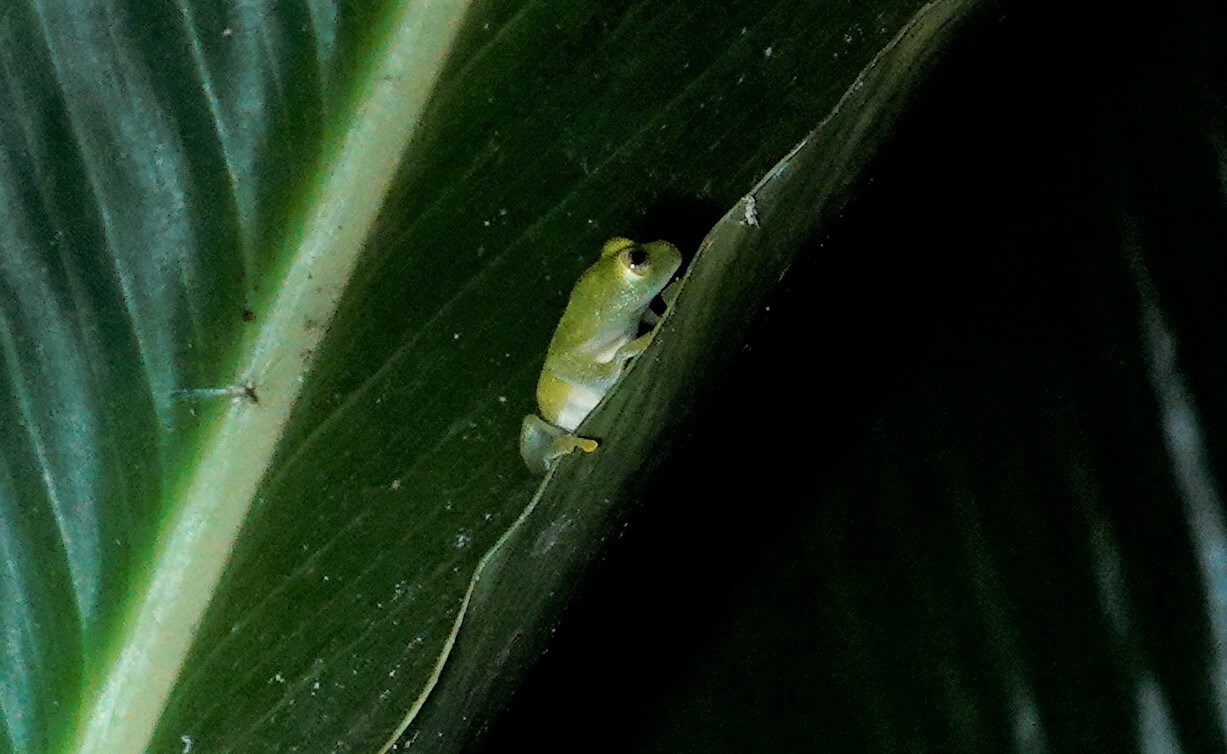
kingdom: Animalia
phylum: Chordata
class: Amphibia
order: Anura
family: Centrolenidae
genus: Teratohyla
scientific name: Teratohyla spinosa
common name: Spiny cochran frog
